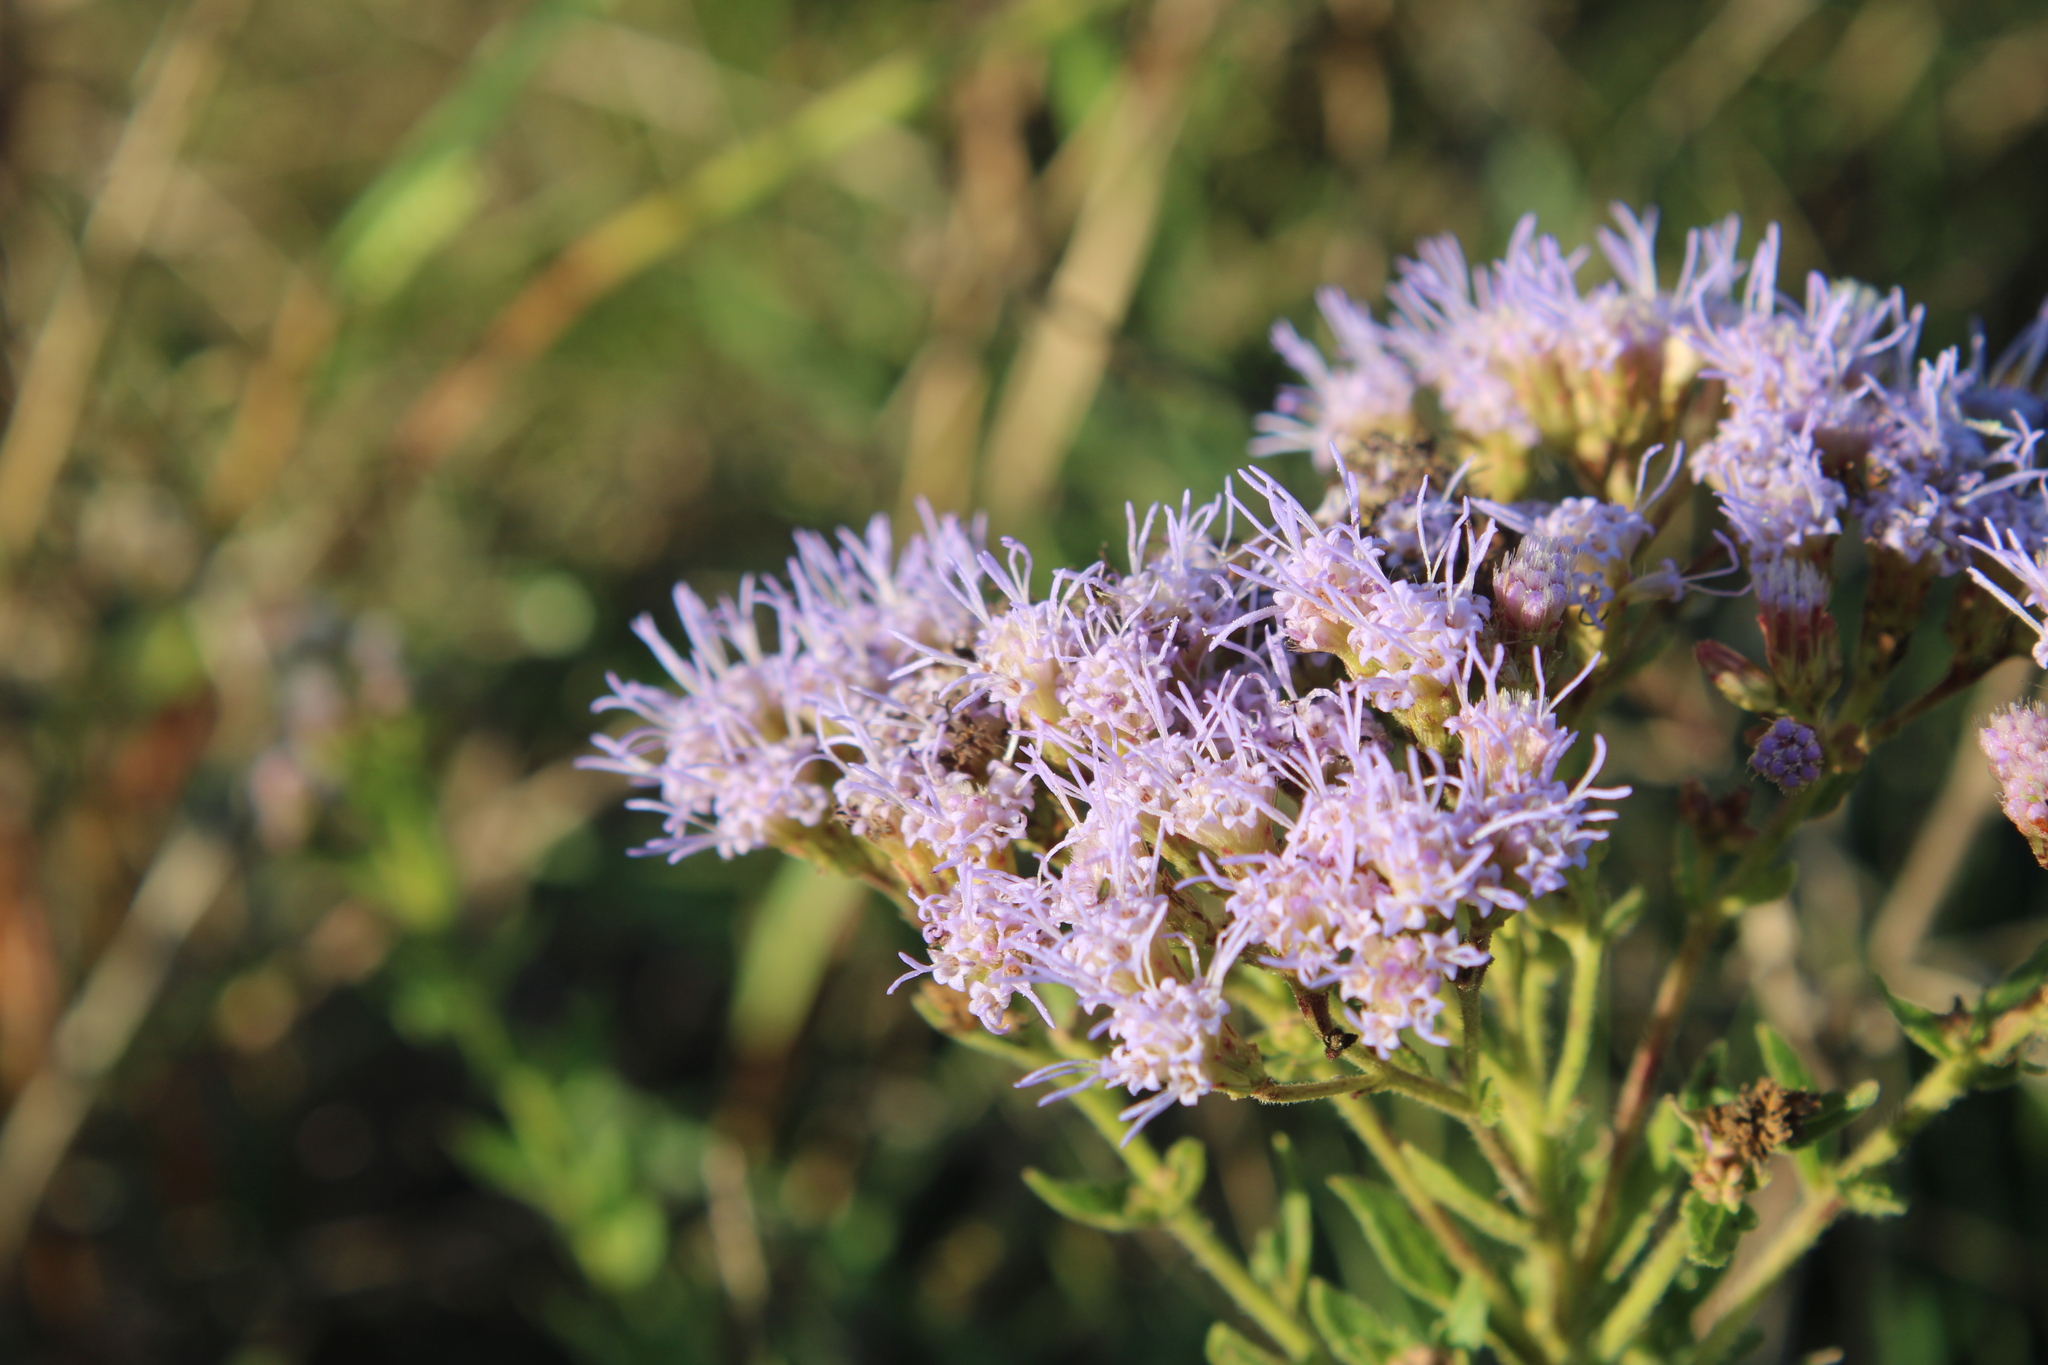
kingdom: Plantae
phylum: Tracheophyta
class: Magnoliopsida
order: Asterales
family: Asteraceae
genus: Chromolaena
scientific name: Chromolaena hirsuta
